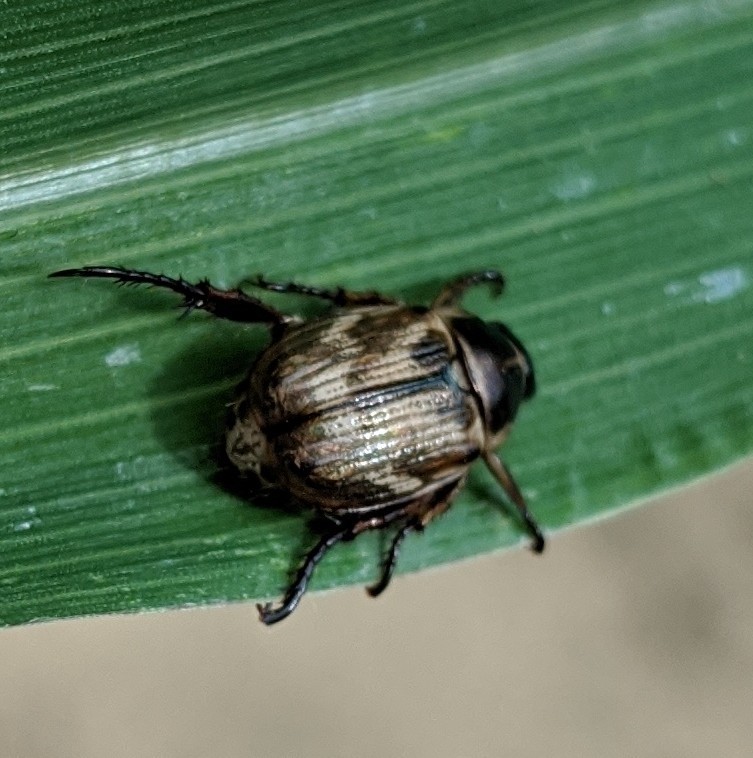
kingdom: Animalia
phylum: Arthropoda
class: Insecta
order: Coleoptera
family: Scarabaeidae
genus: Exomala
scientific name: Exomala orientalis
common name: Oriental beetle
